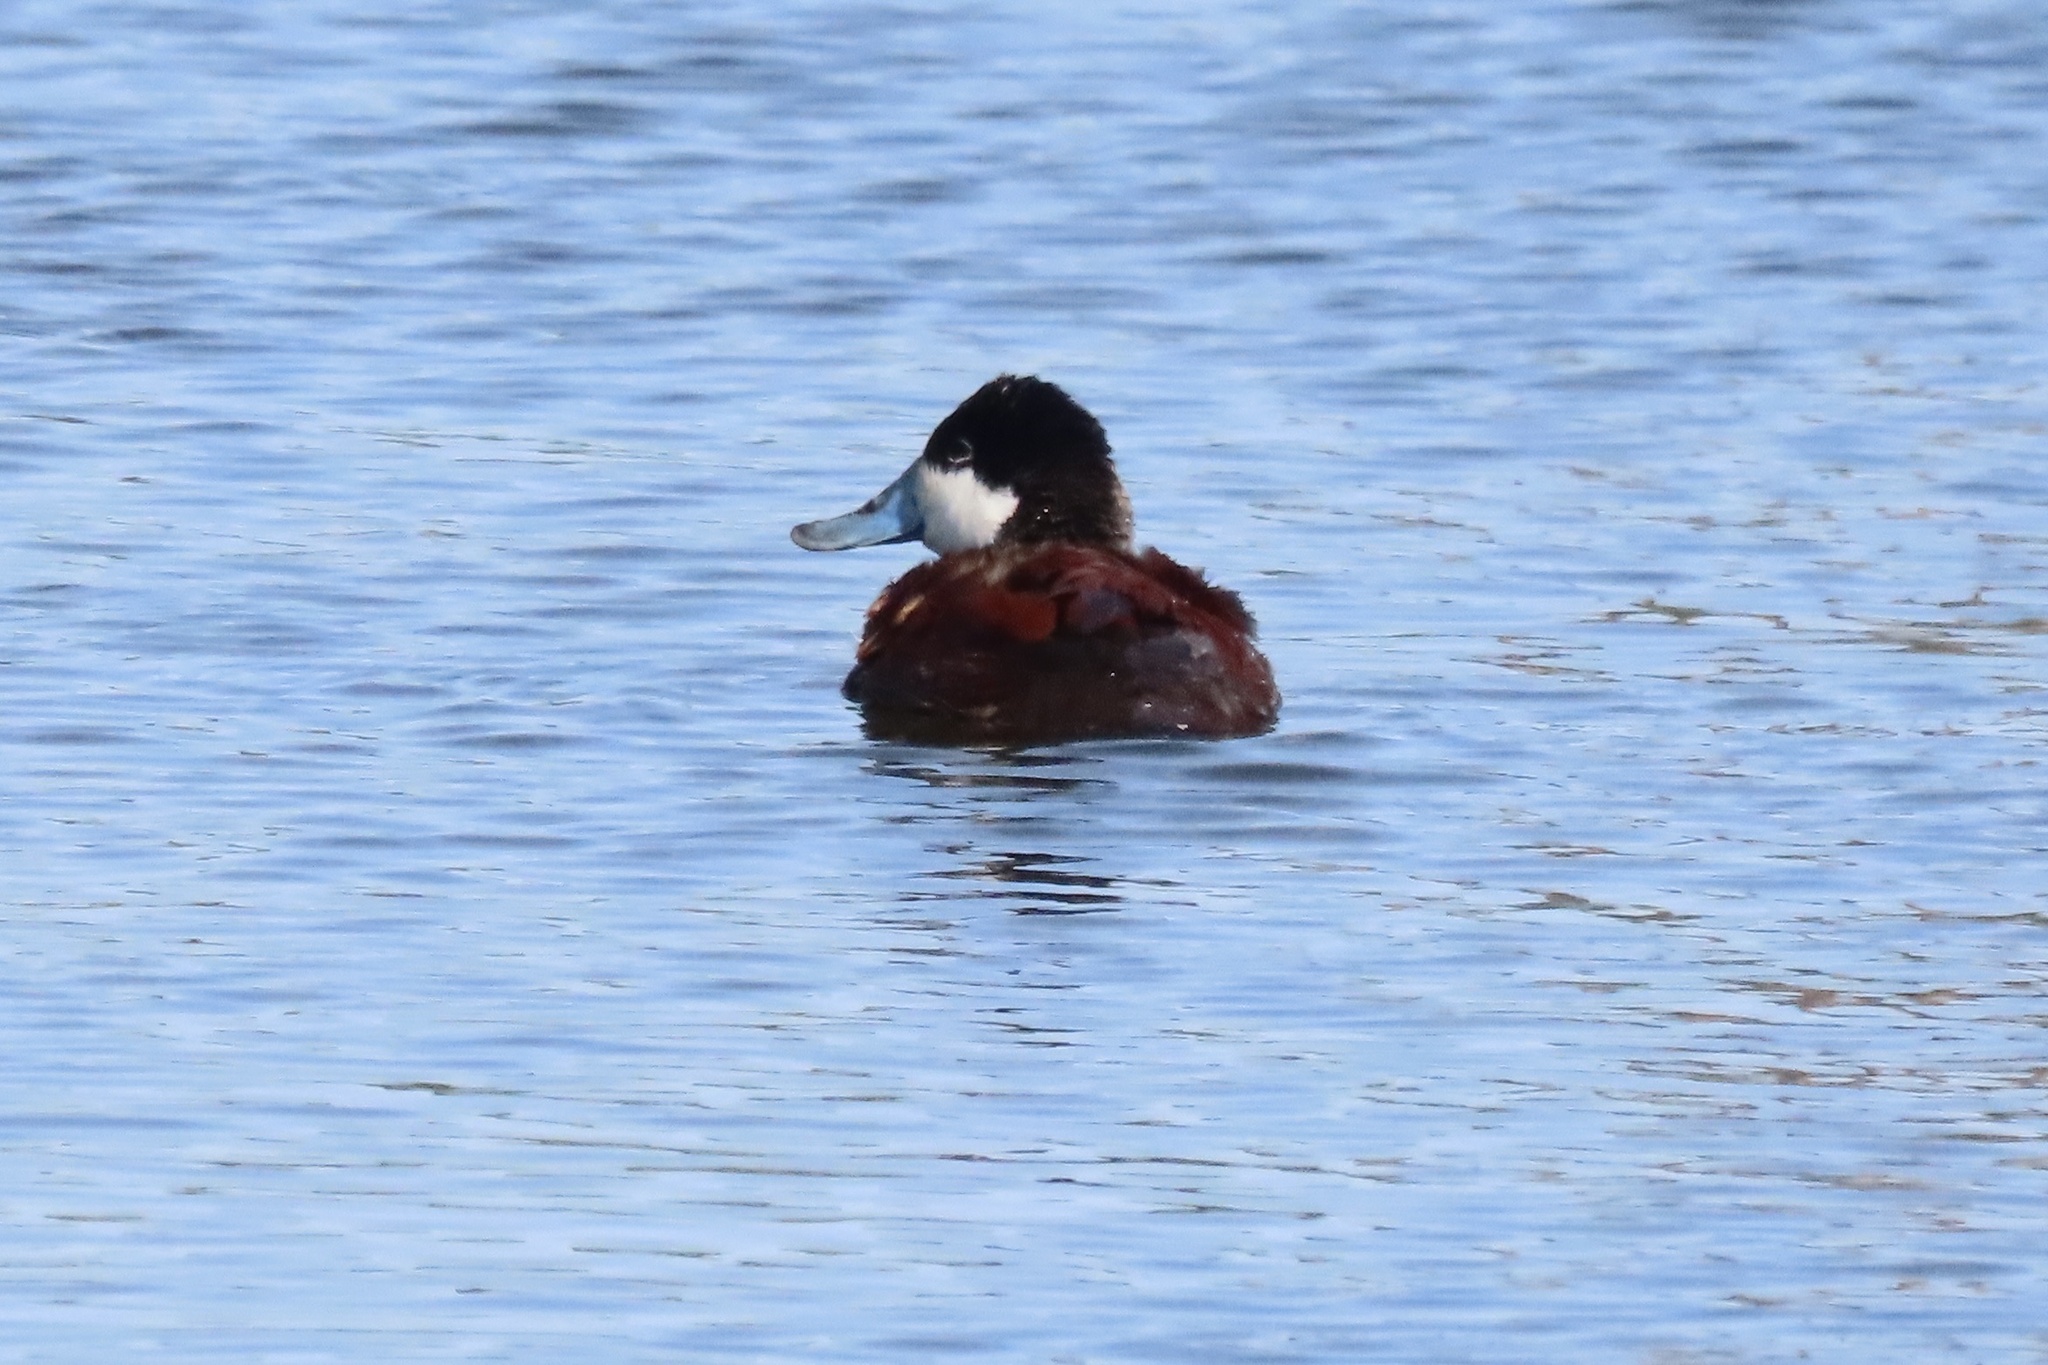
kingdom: Animalia
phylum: Chordata
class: Aves
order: Anseriformes
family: Anatidae
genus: Oxyura
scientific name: Oxyura jamaicensis
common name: Ruddy duck
